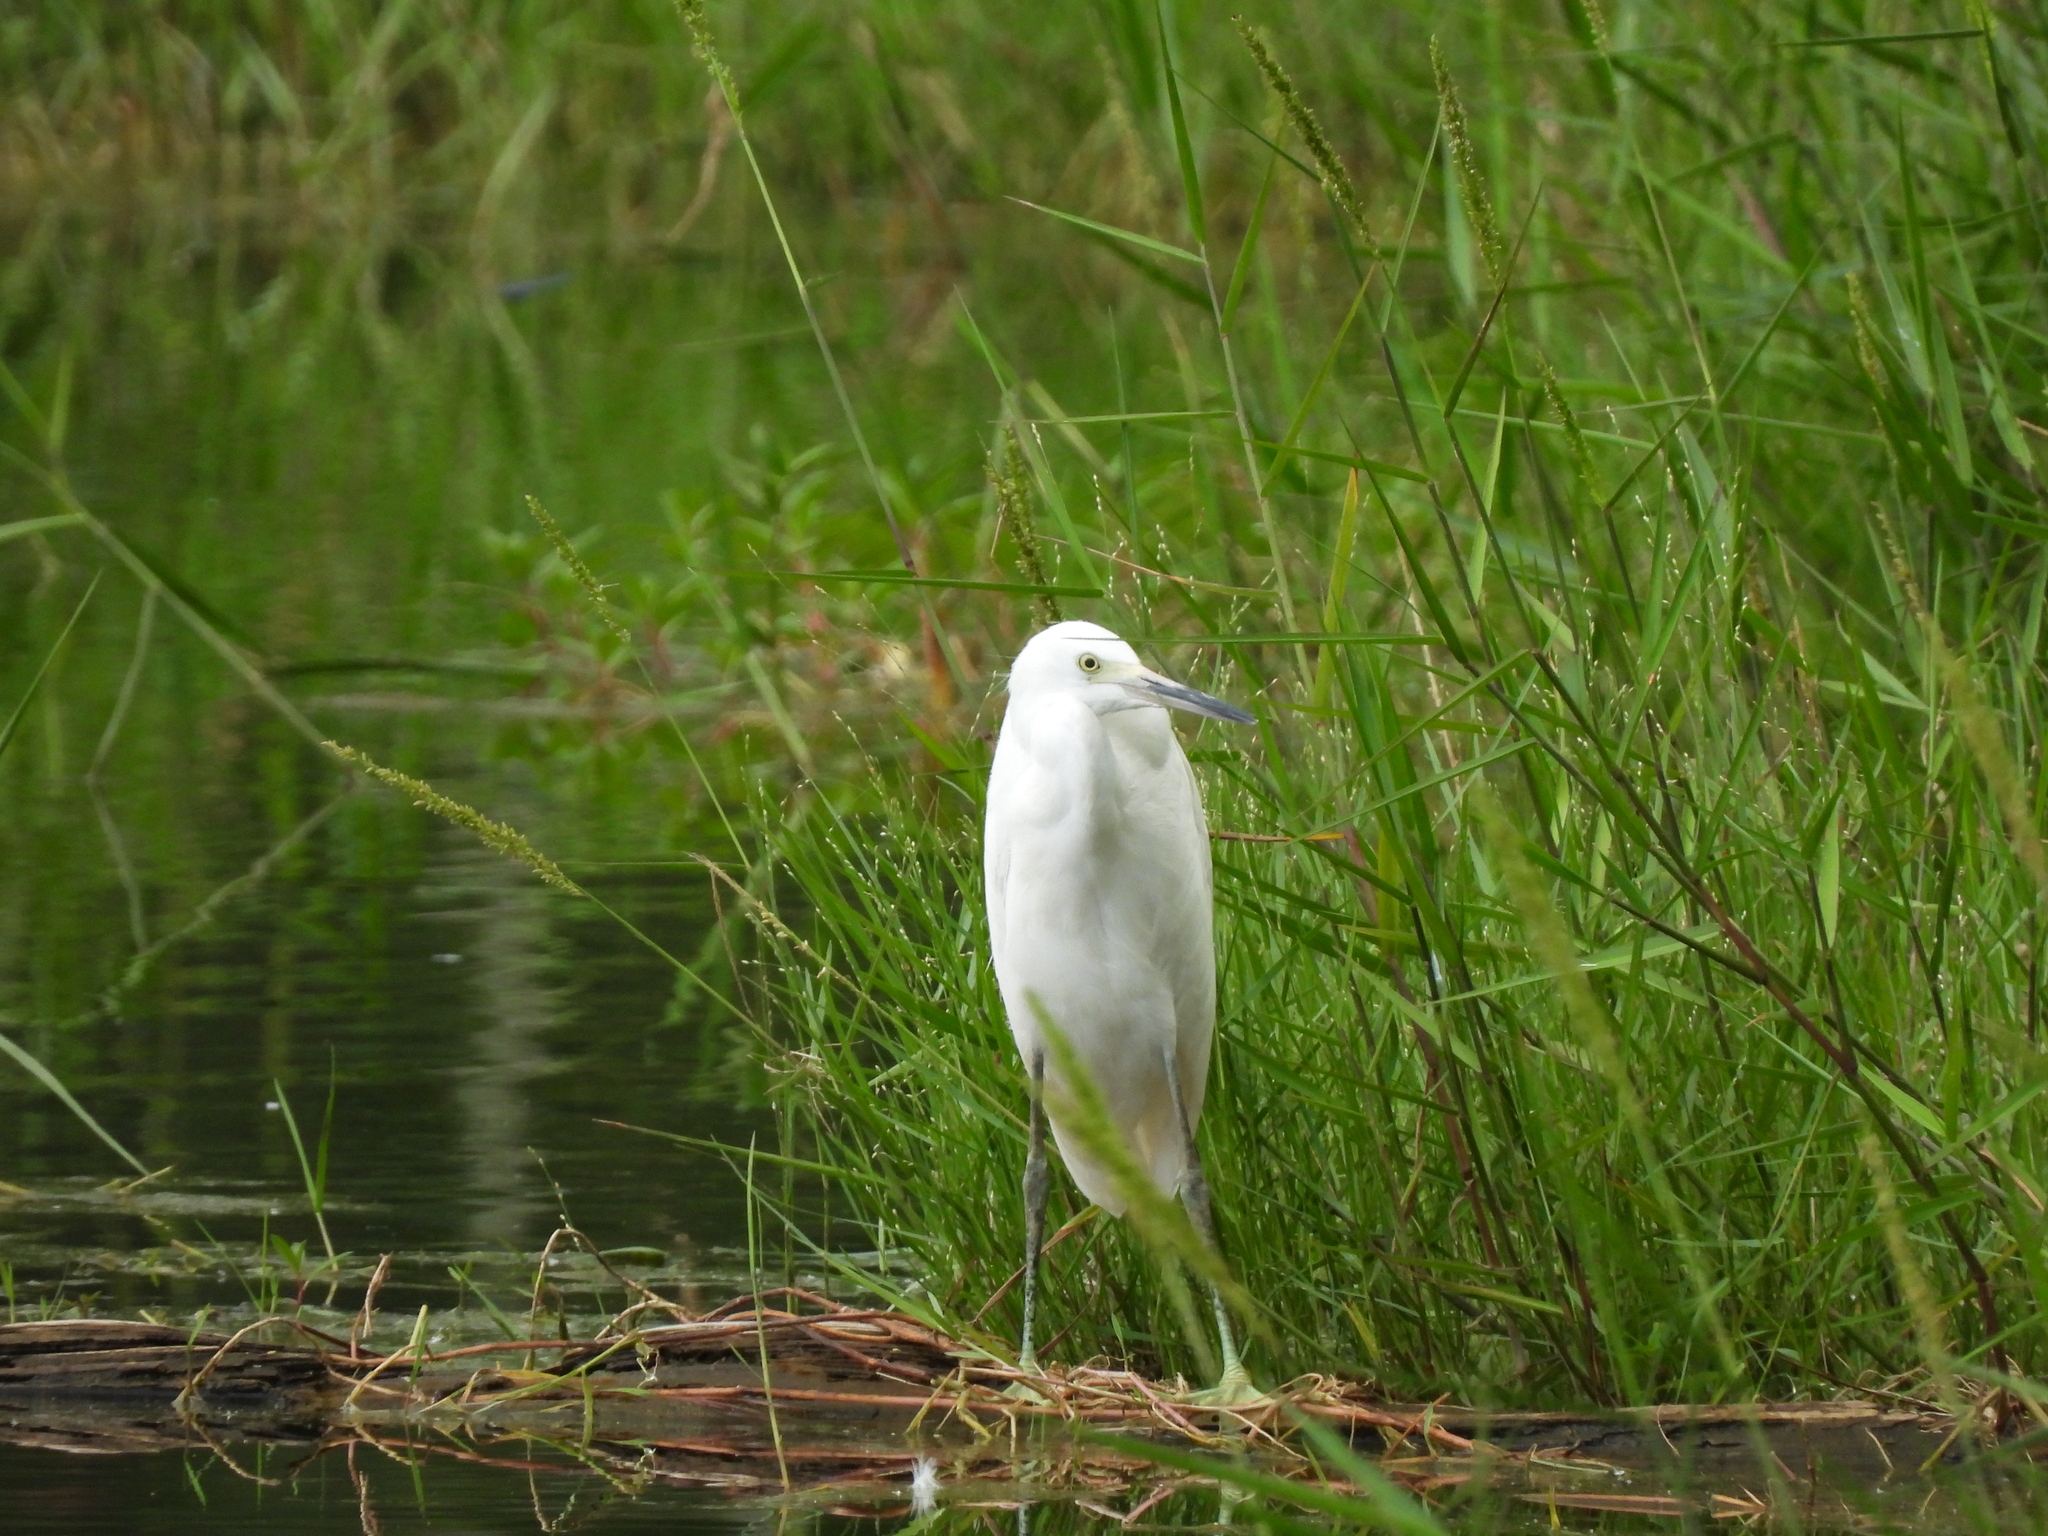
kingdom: Animalia
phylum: Chordata
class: Aves
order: Pelecaniformes
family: Ardeidae
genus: Egretta
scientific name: Egretta thula
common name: Snowy egret
